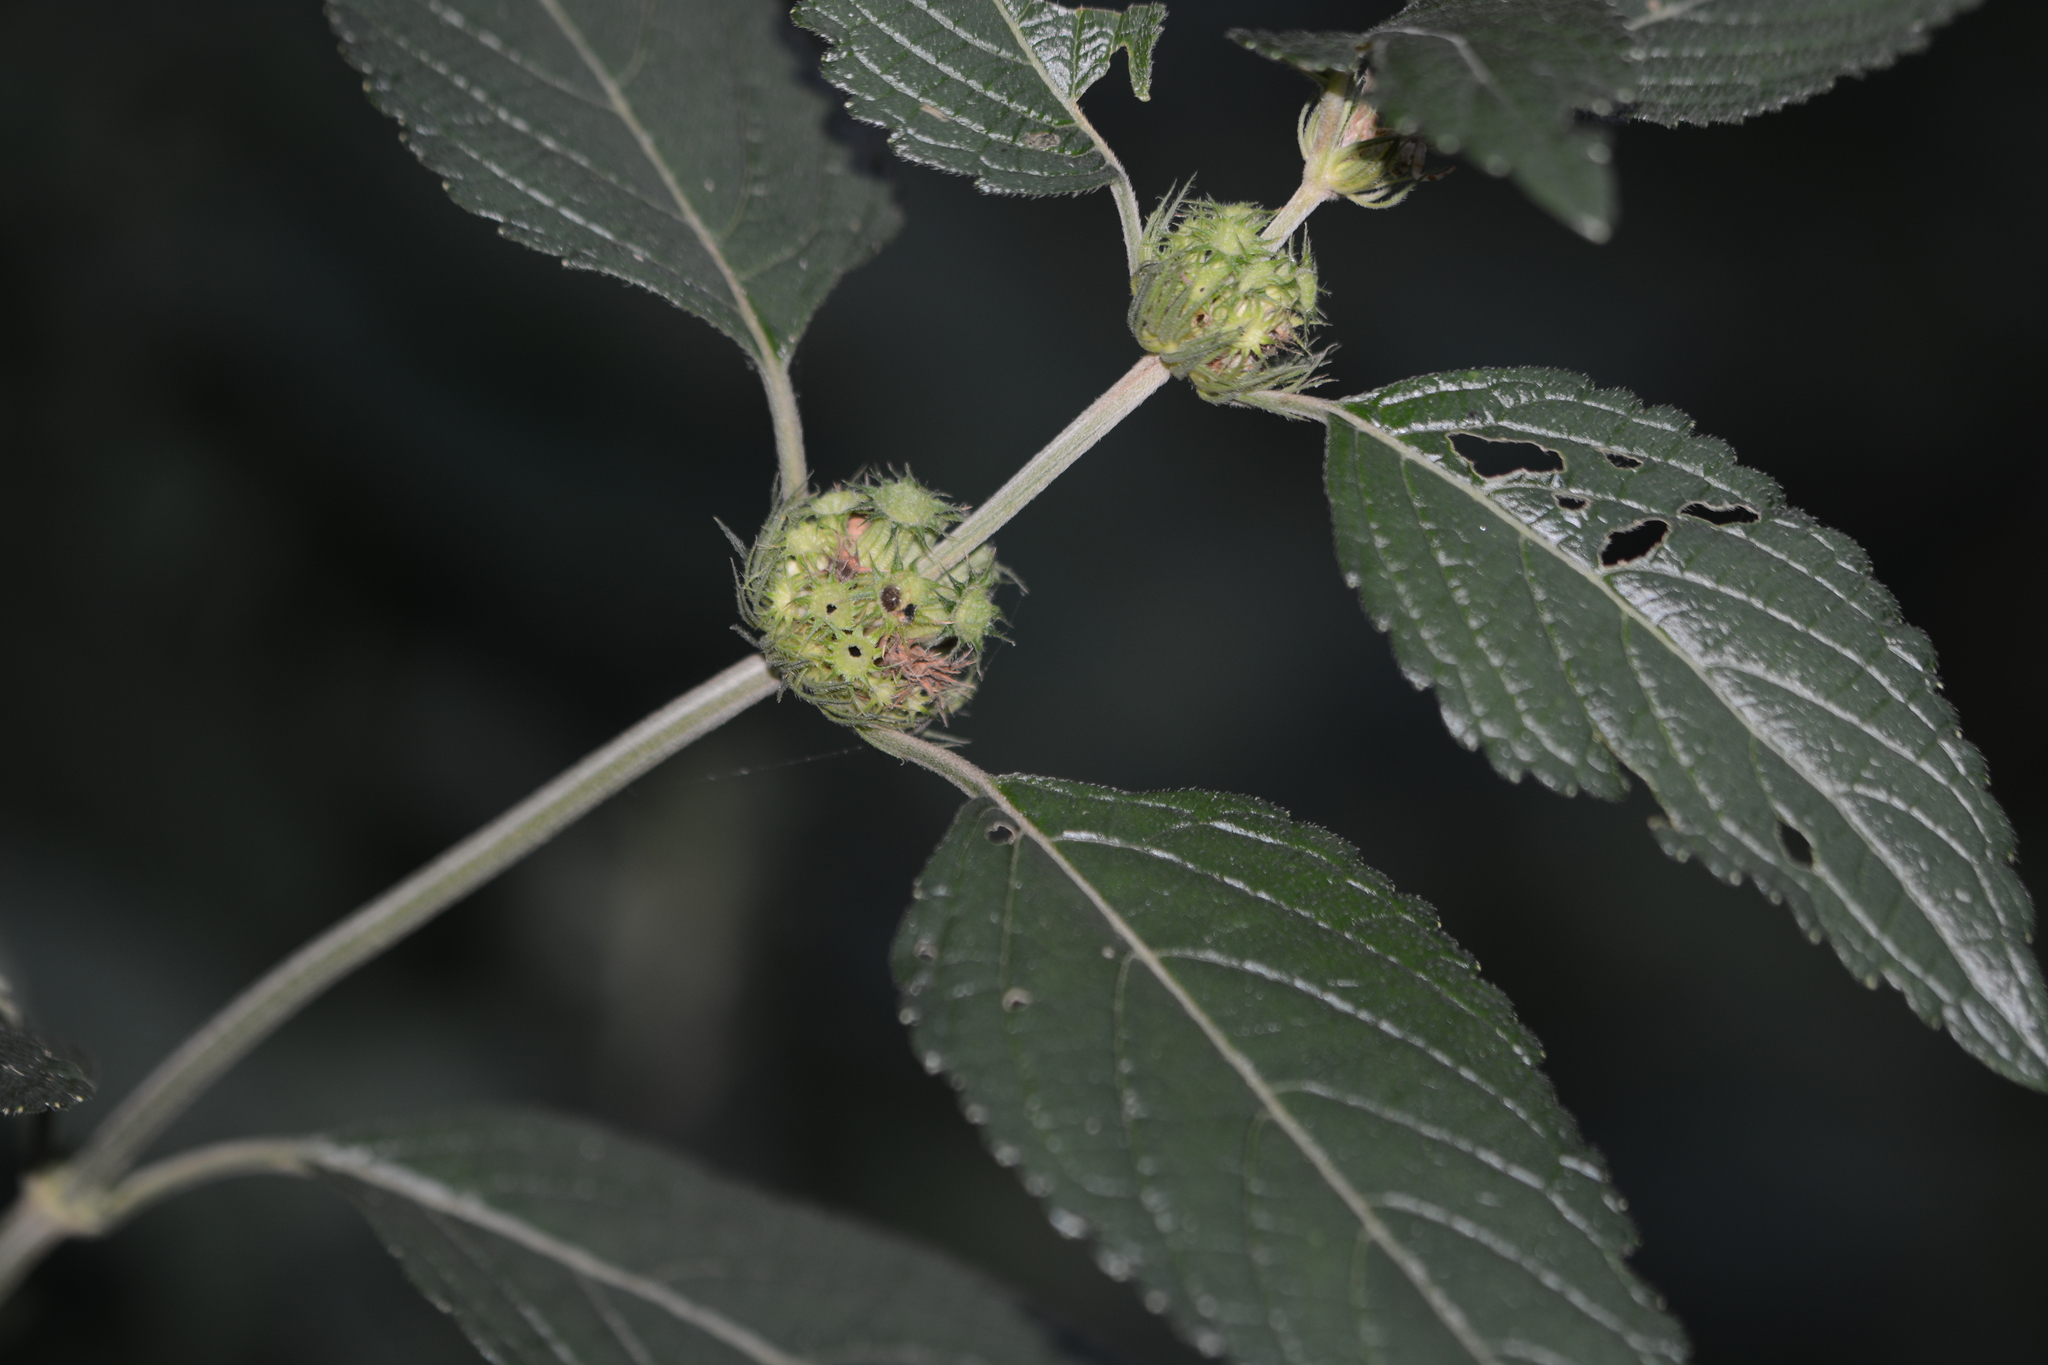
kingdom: Plantae
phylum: Tracheophyta
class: Magnoliopsida
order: Lamiales
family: Lamiaceae
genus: Leucas
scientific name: Leucas ciliata
